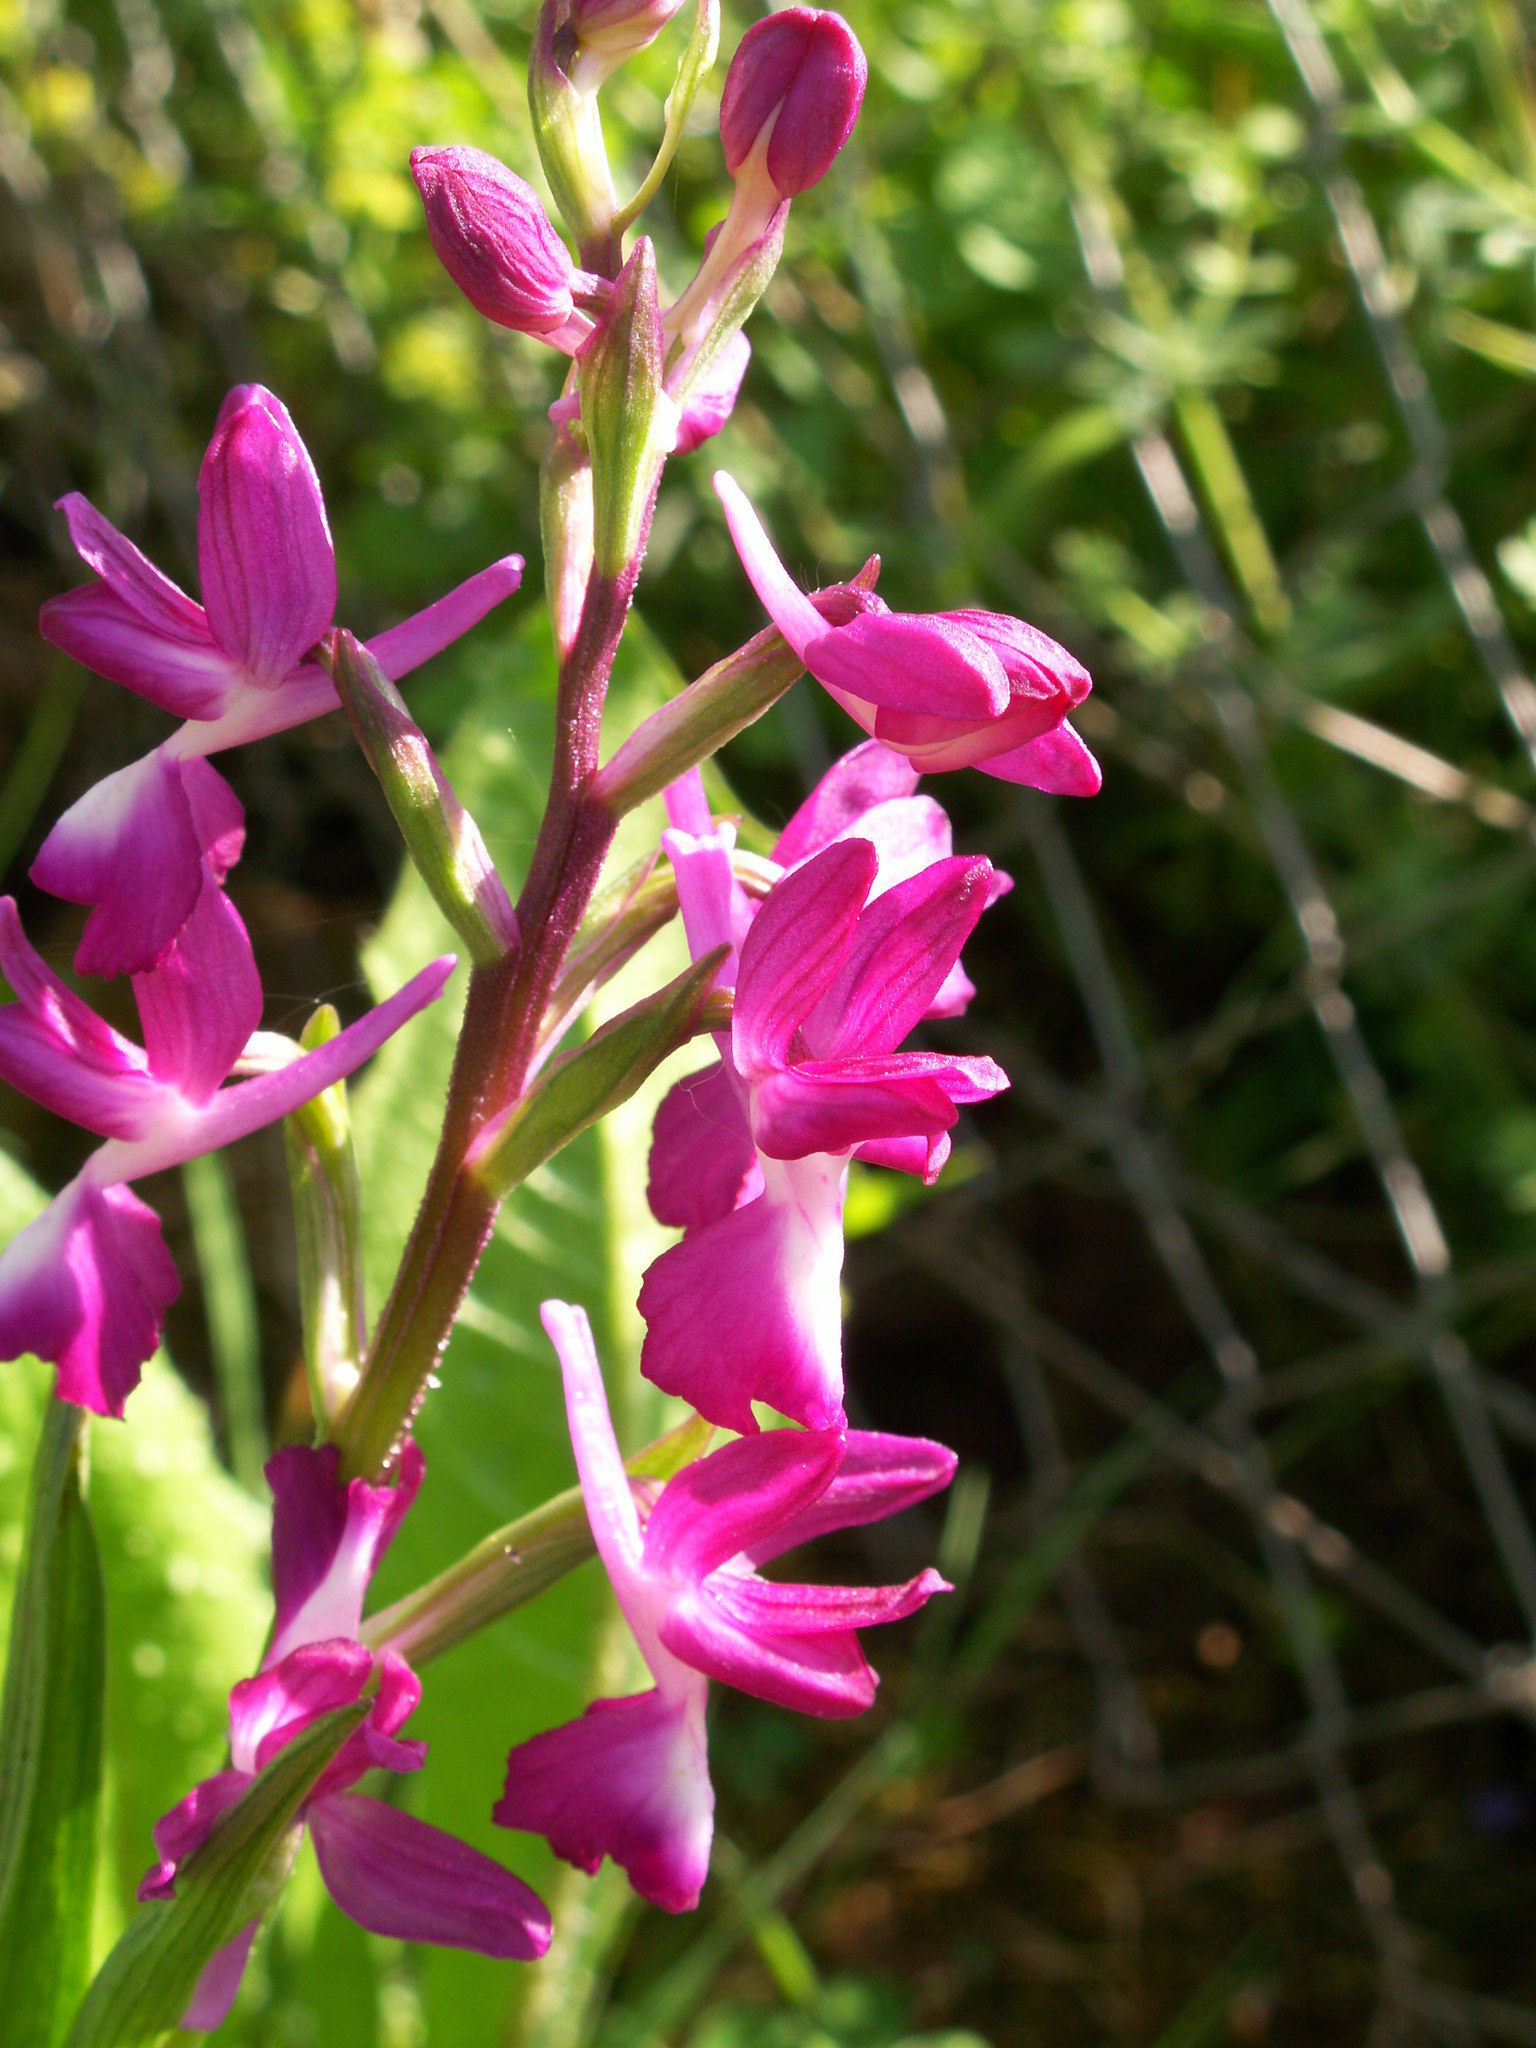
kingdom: Plantae
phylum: Tracheophyta
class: Liliopsida
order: Asparagales
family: Orchidaceae
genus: Anacamptis
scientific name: Anacamptis laxiflora
